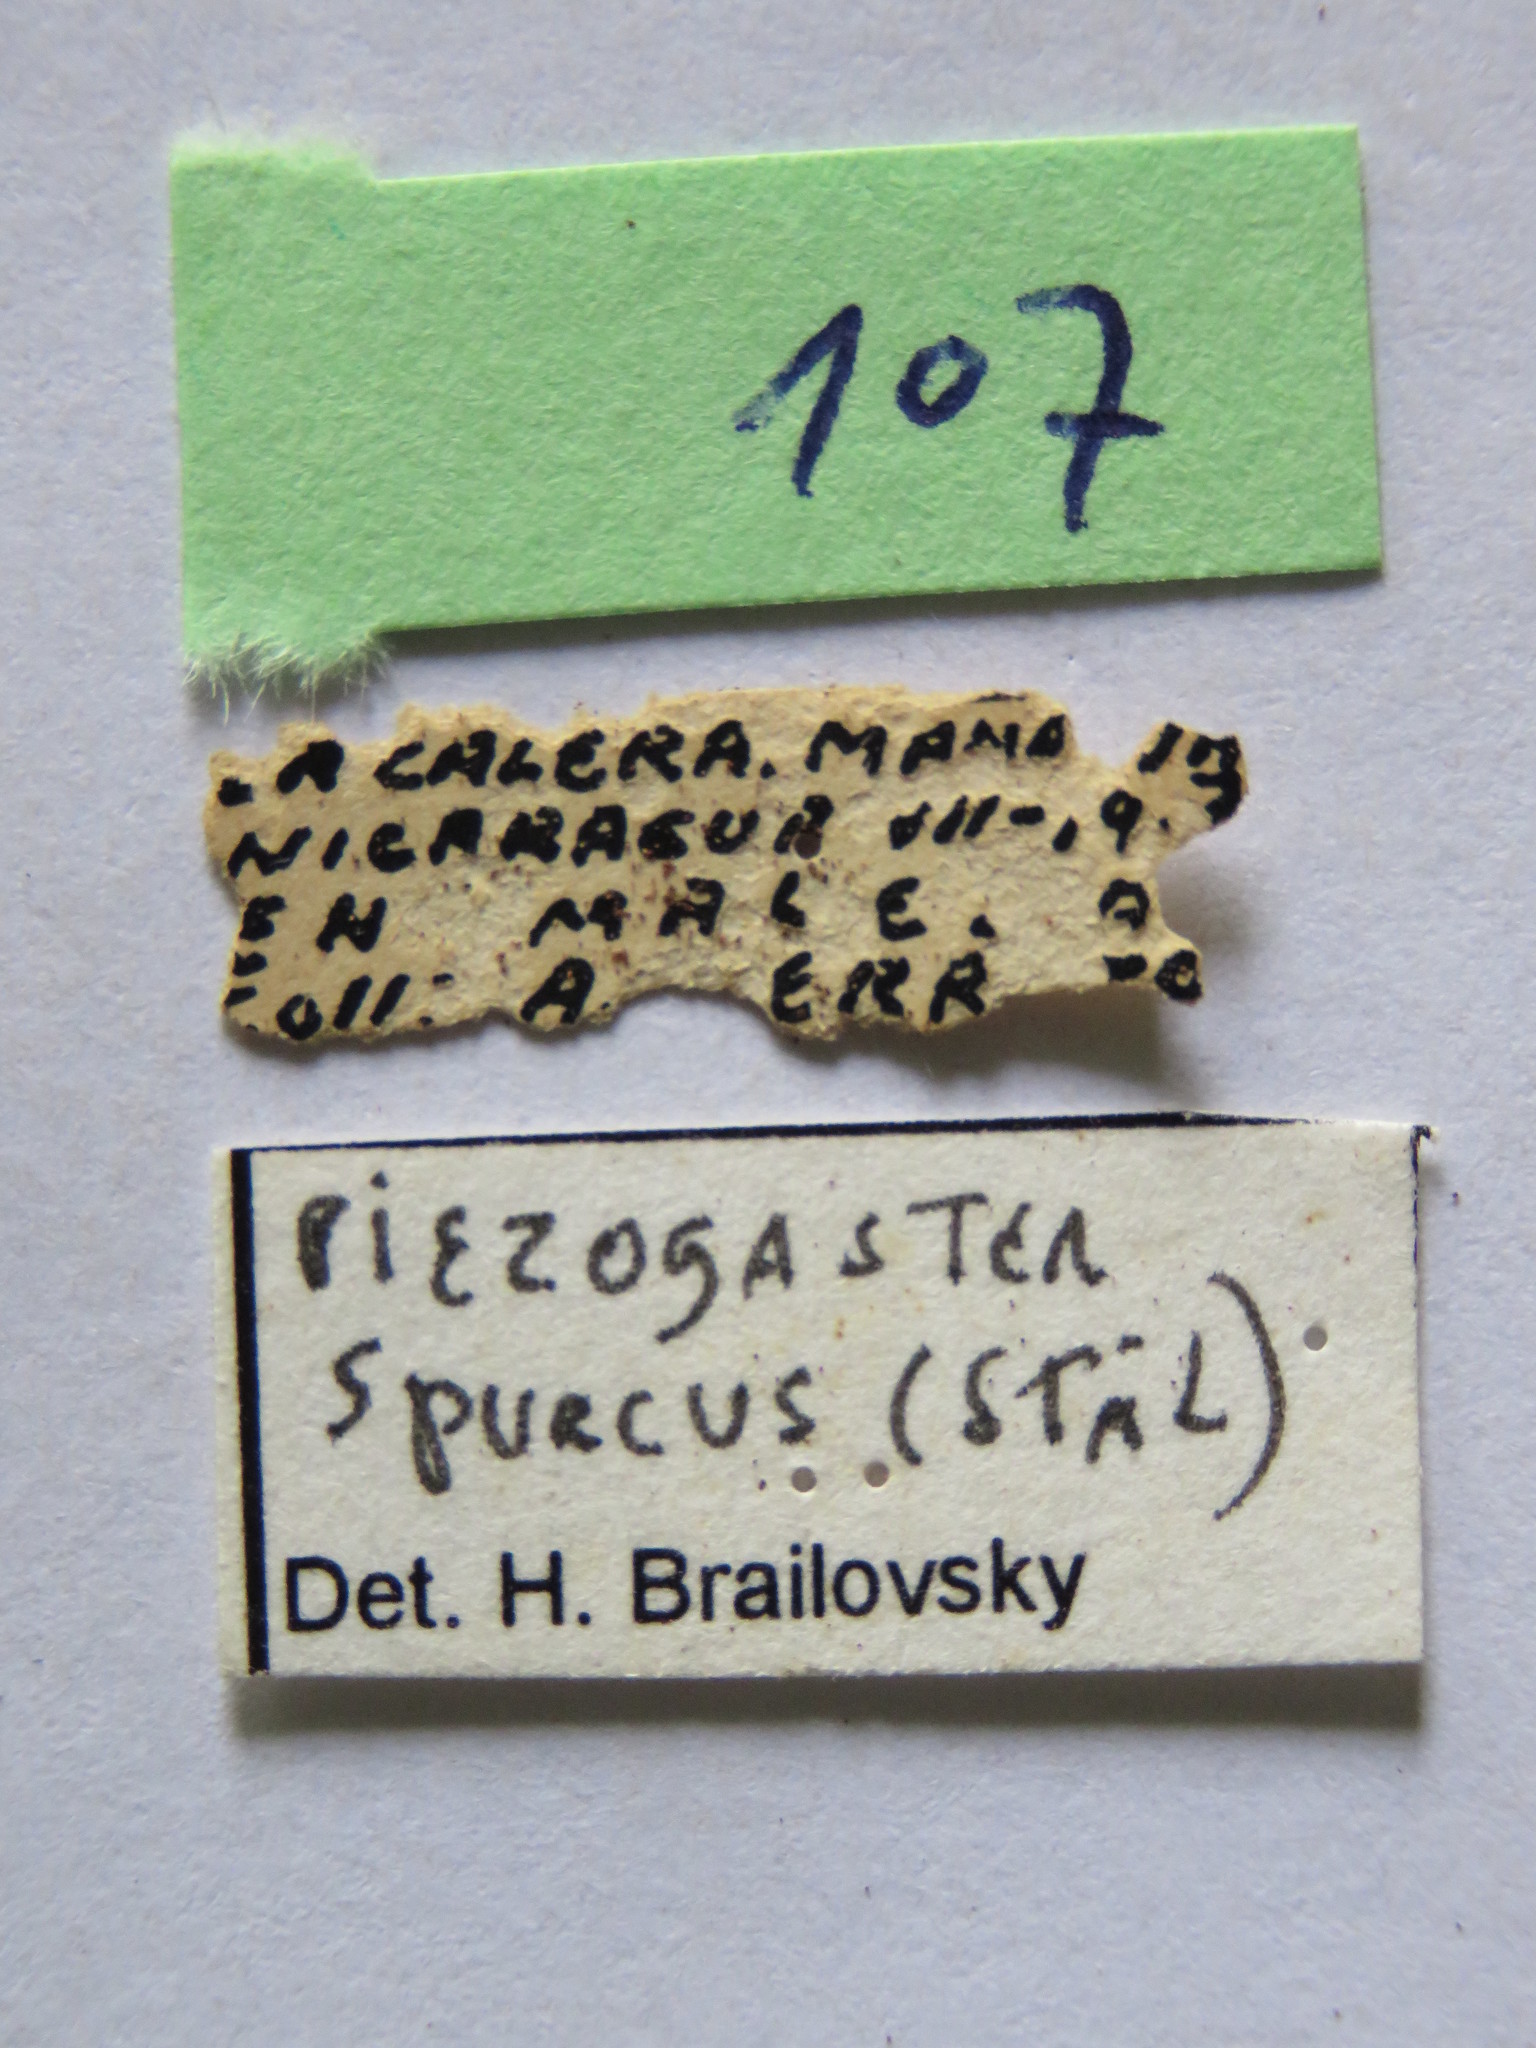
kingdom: Animalia
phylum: Arthropoda
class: Insecta
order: Hemiptera
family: Coreidae
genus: Piezogaster
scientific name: Piezogaster spurcus
